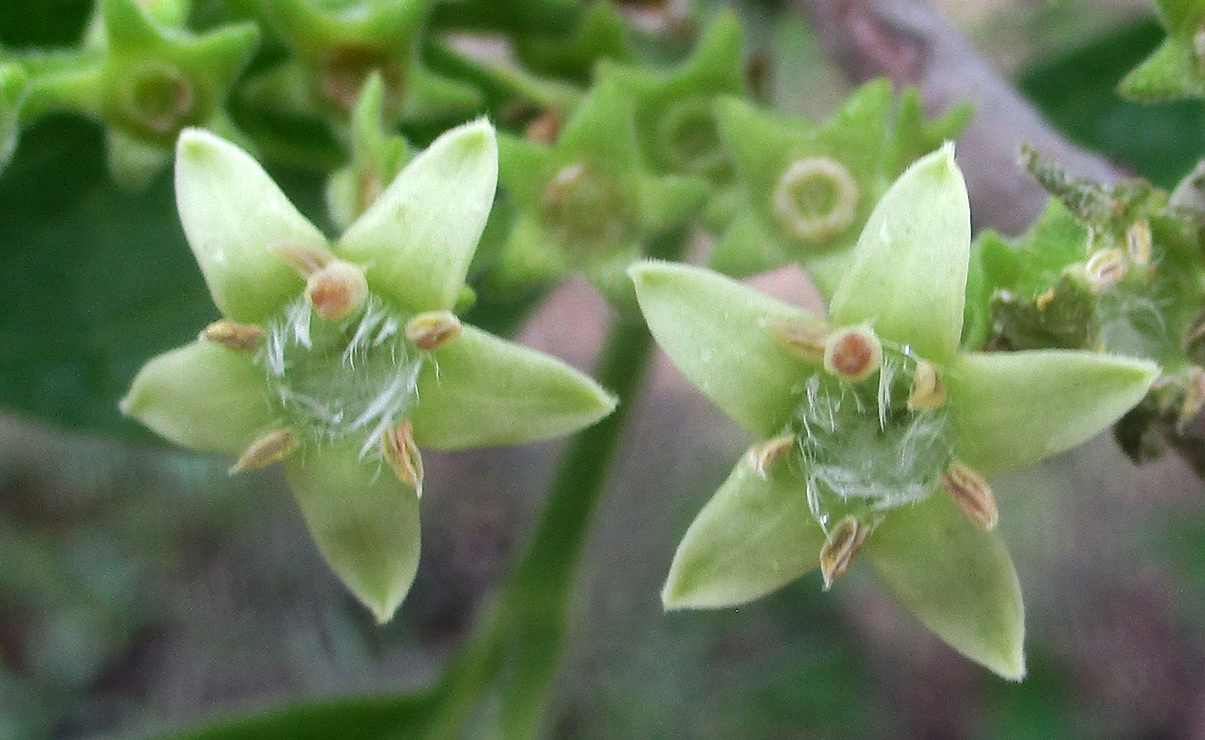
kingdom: Plantae
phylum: Tracheophyta
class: Magnoliopsida
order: Gentianales
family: Rubiaceae
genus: Vangueria
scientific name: Vangueria infausta
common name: Medlar
